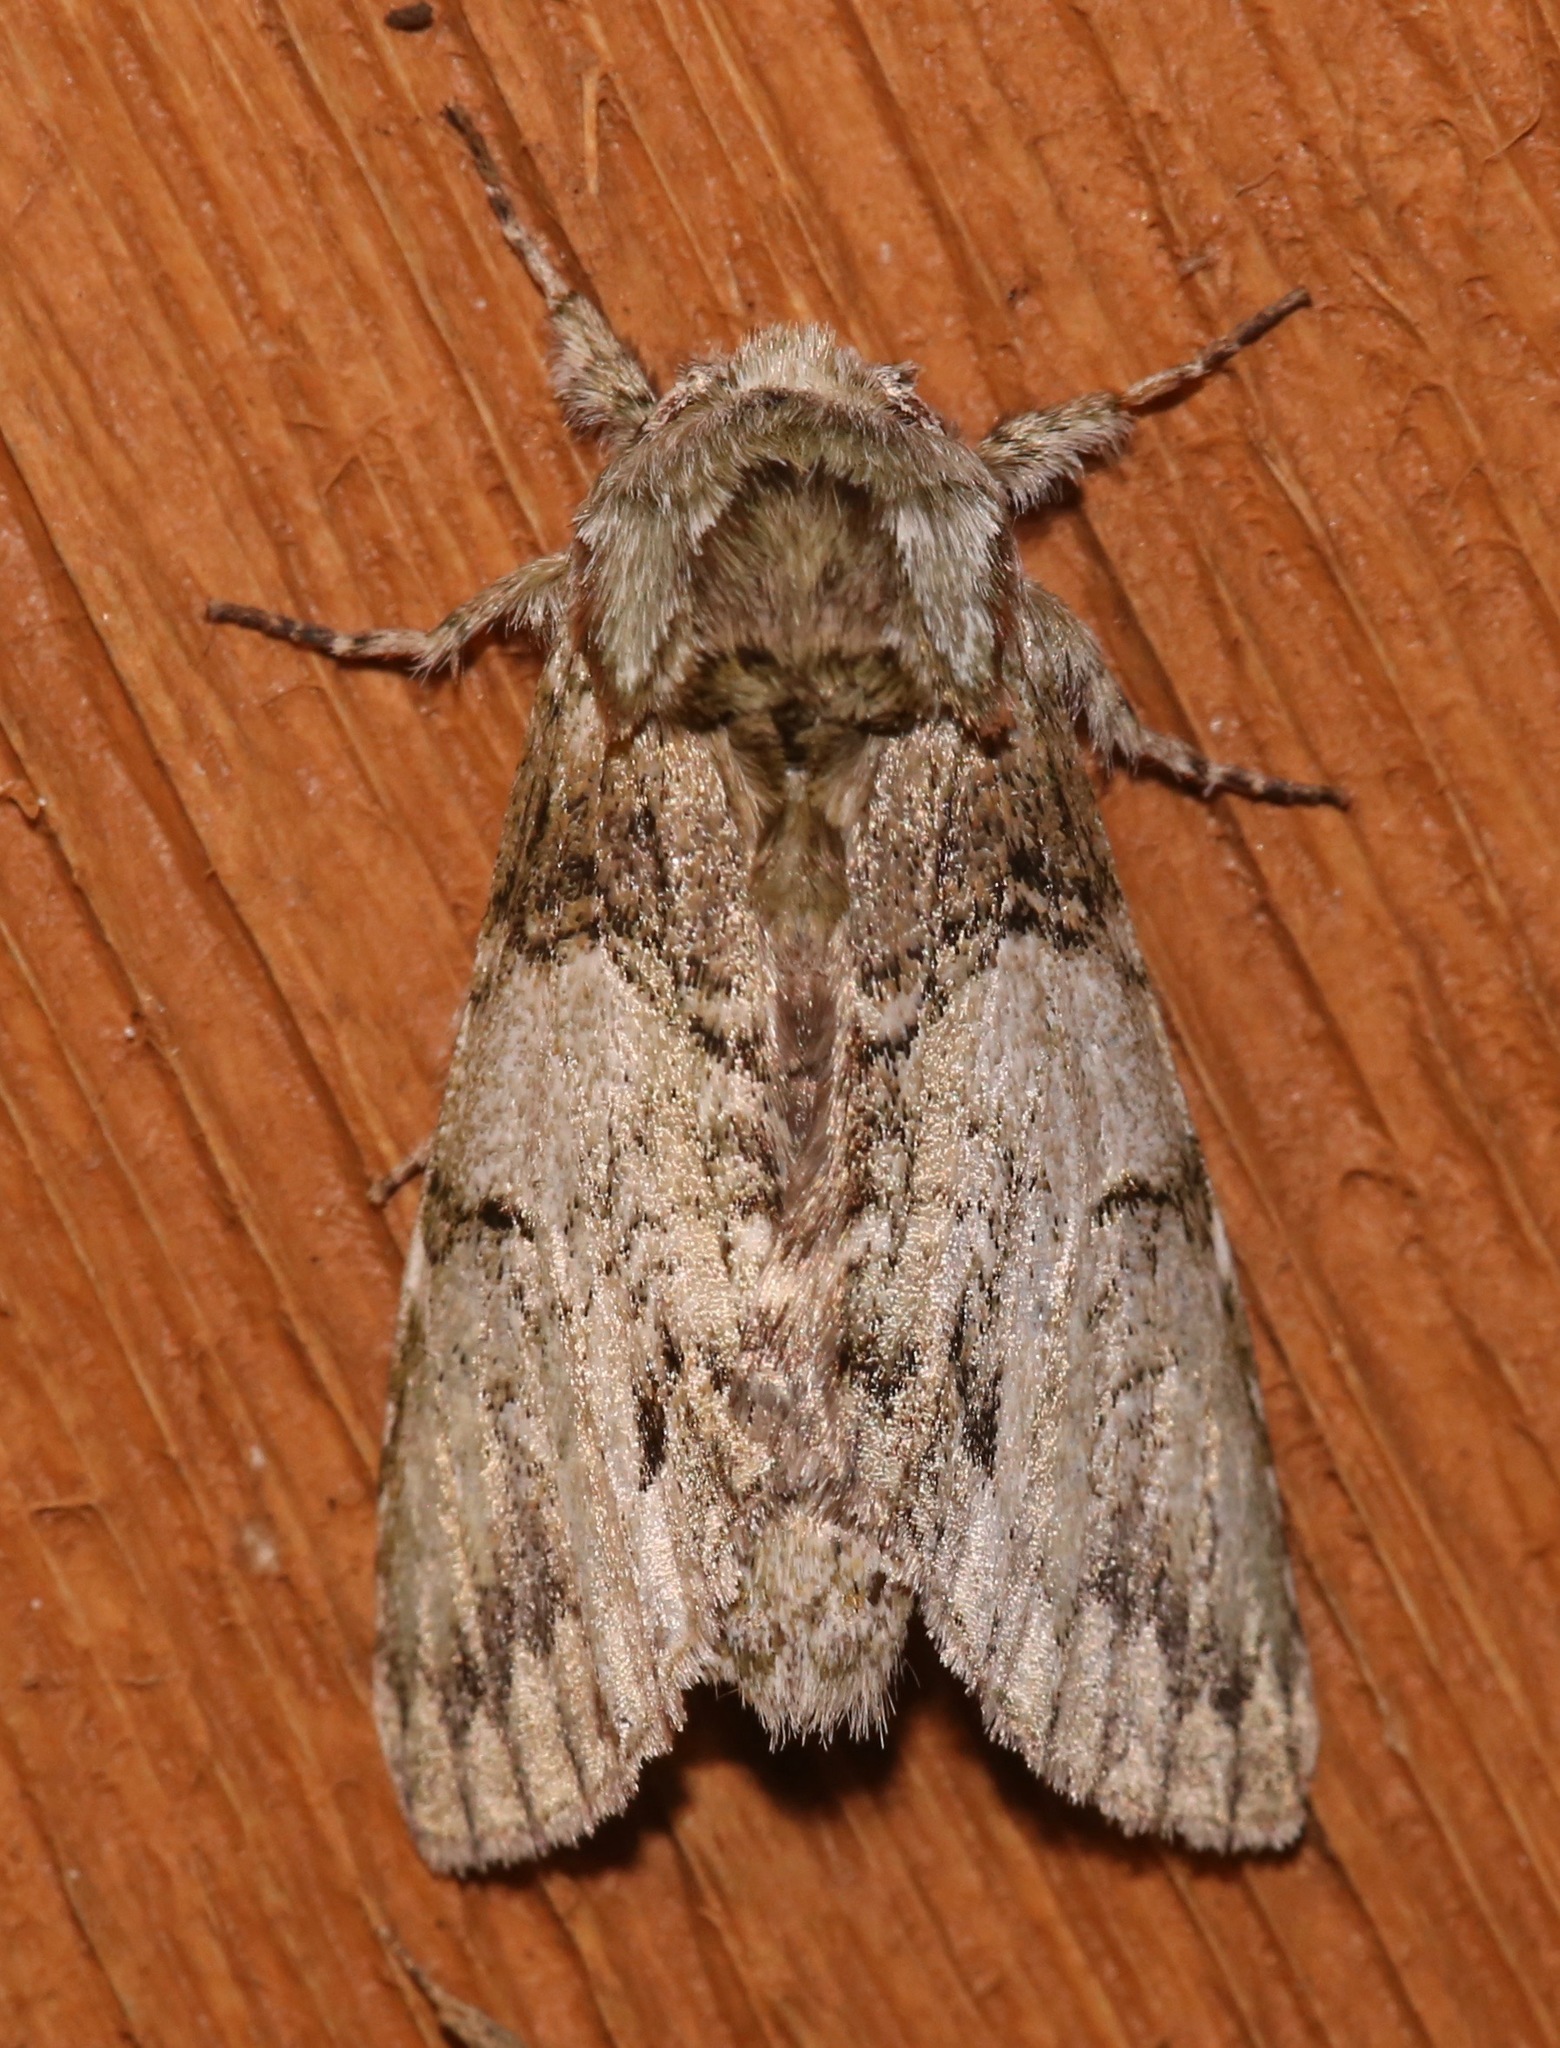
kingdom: Animalia
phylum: Arthropoda
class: Insecta
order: Lepidoptera
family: Notodontidae
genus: Macrurocampa
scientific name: Macrurocampa marthesia
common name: Mottled prominent
